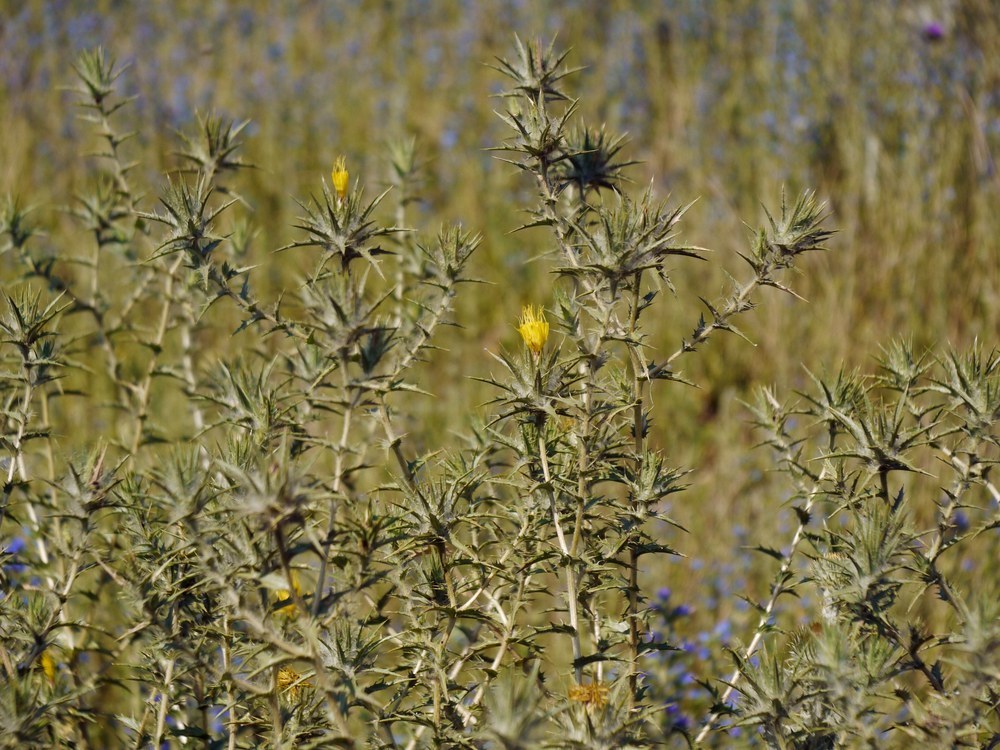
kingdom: Plantae
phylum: Tracheophyta
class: Magnoliopsida
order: Asterales
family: Asteraceae
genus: Carthamus
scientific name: Carthamus lanatus
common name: Downy safflower
